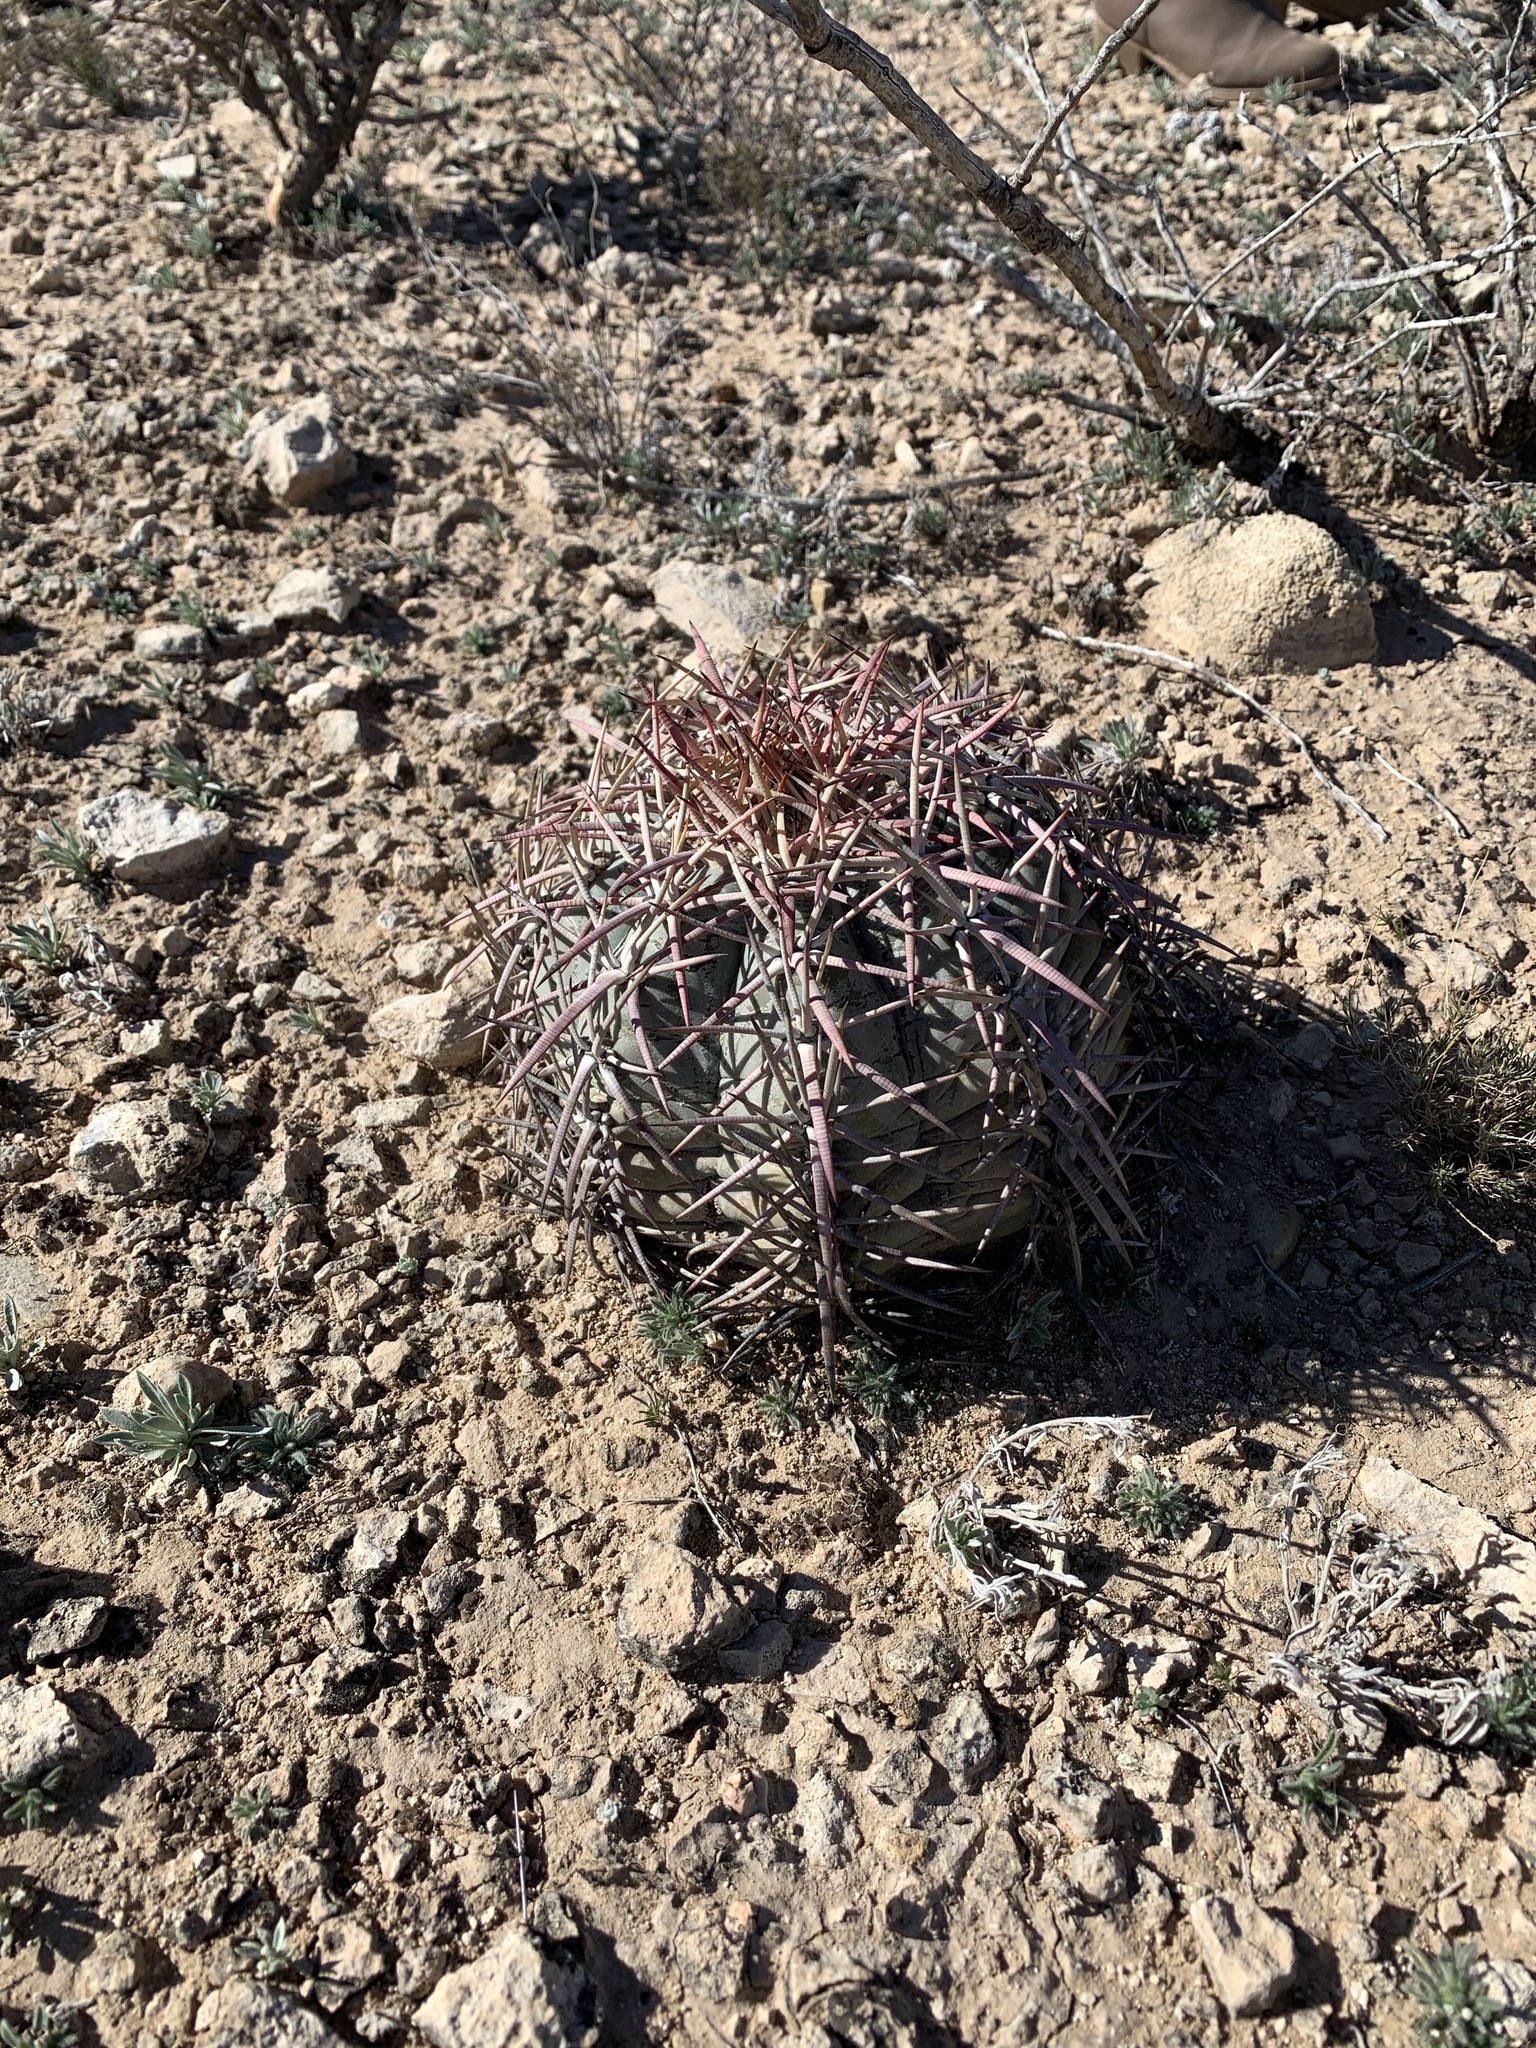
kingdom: Plantae
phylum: Tracheophyta
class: Magnoliopsida
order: Caryophyllales
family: Cactaceae
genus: Echinocactus
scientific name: Echinocactus horizonthalonius
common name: Devilshead
